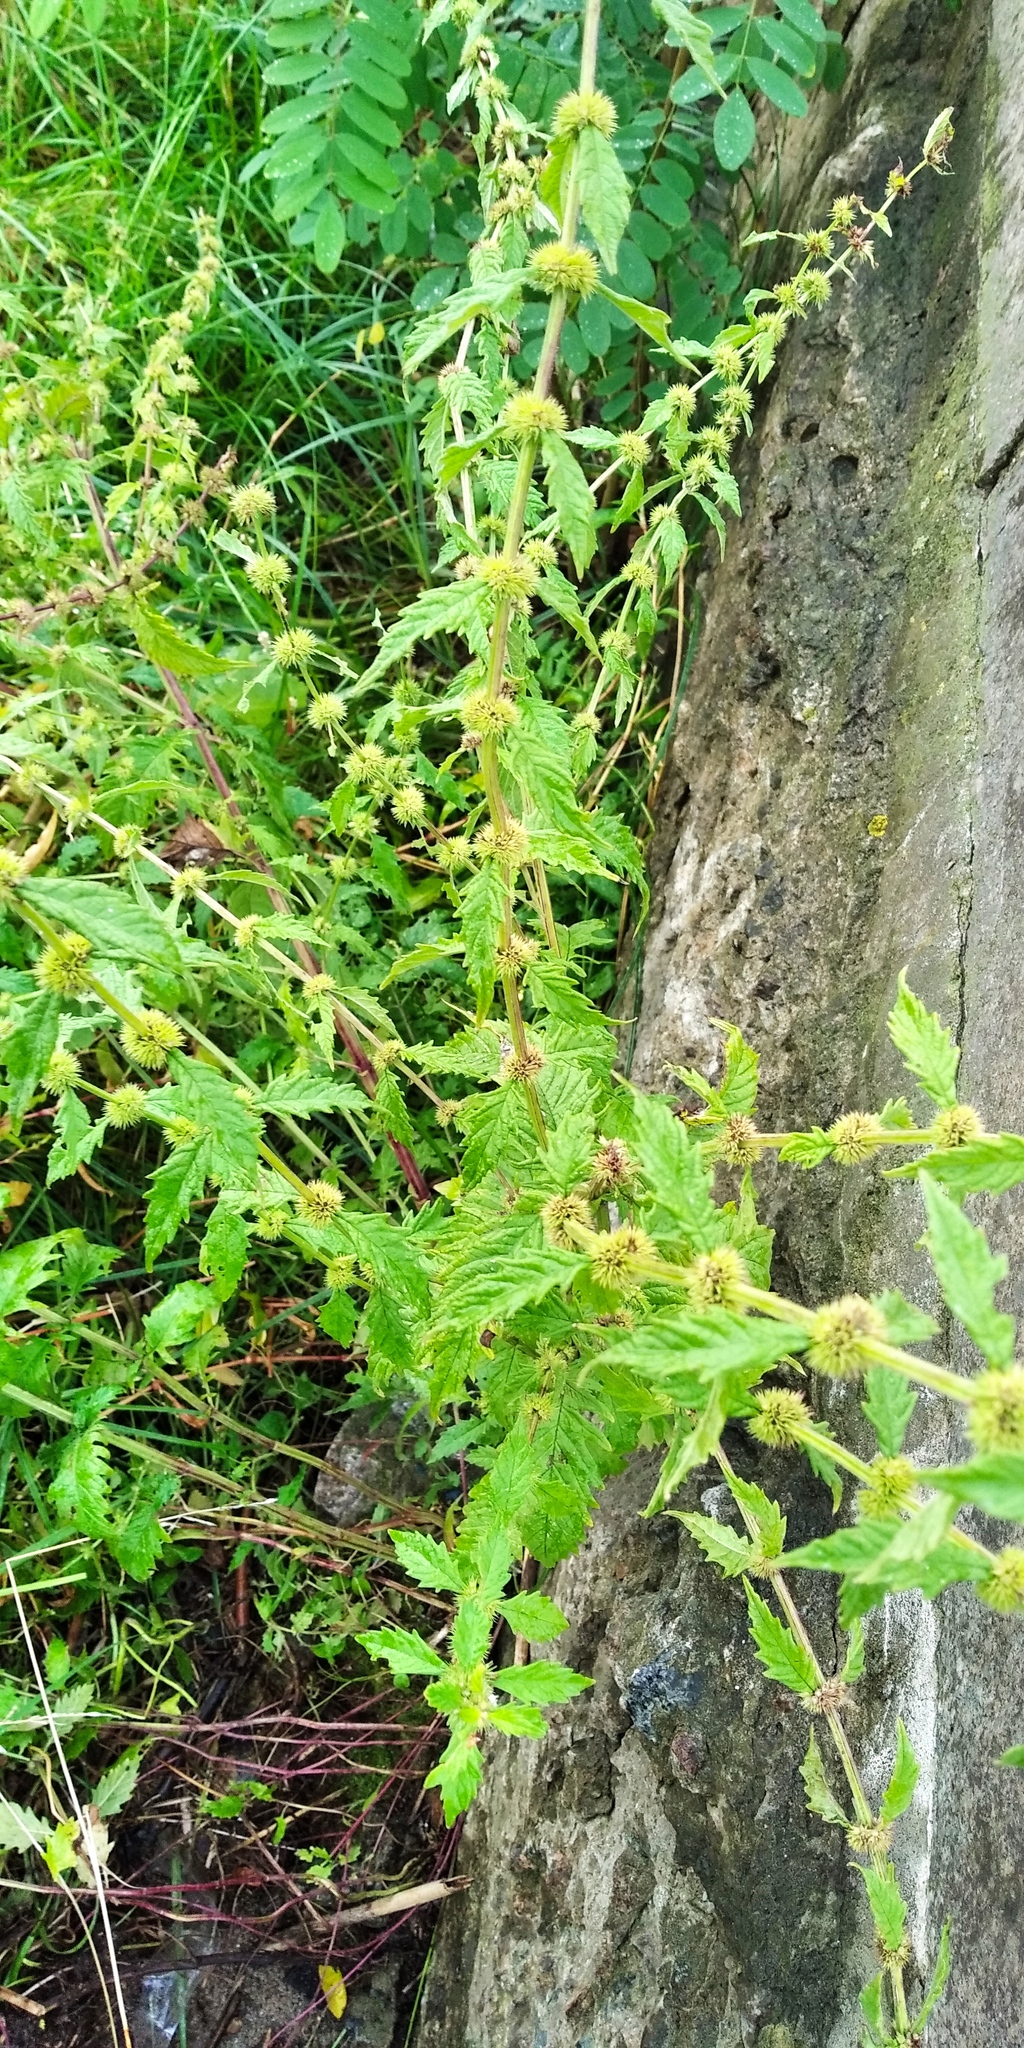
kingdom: Plantae
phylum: Tracheophyta
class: Magnoliopsida
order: Lamiales
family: Lamiaceae
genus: Lycopus
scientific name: Lycopus europaeus
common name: European bugleweed
